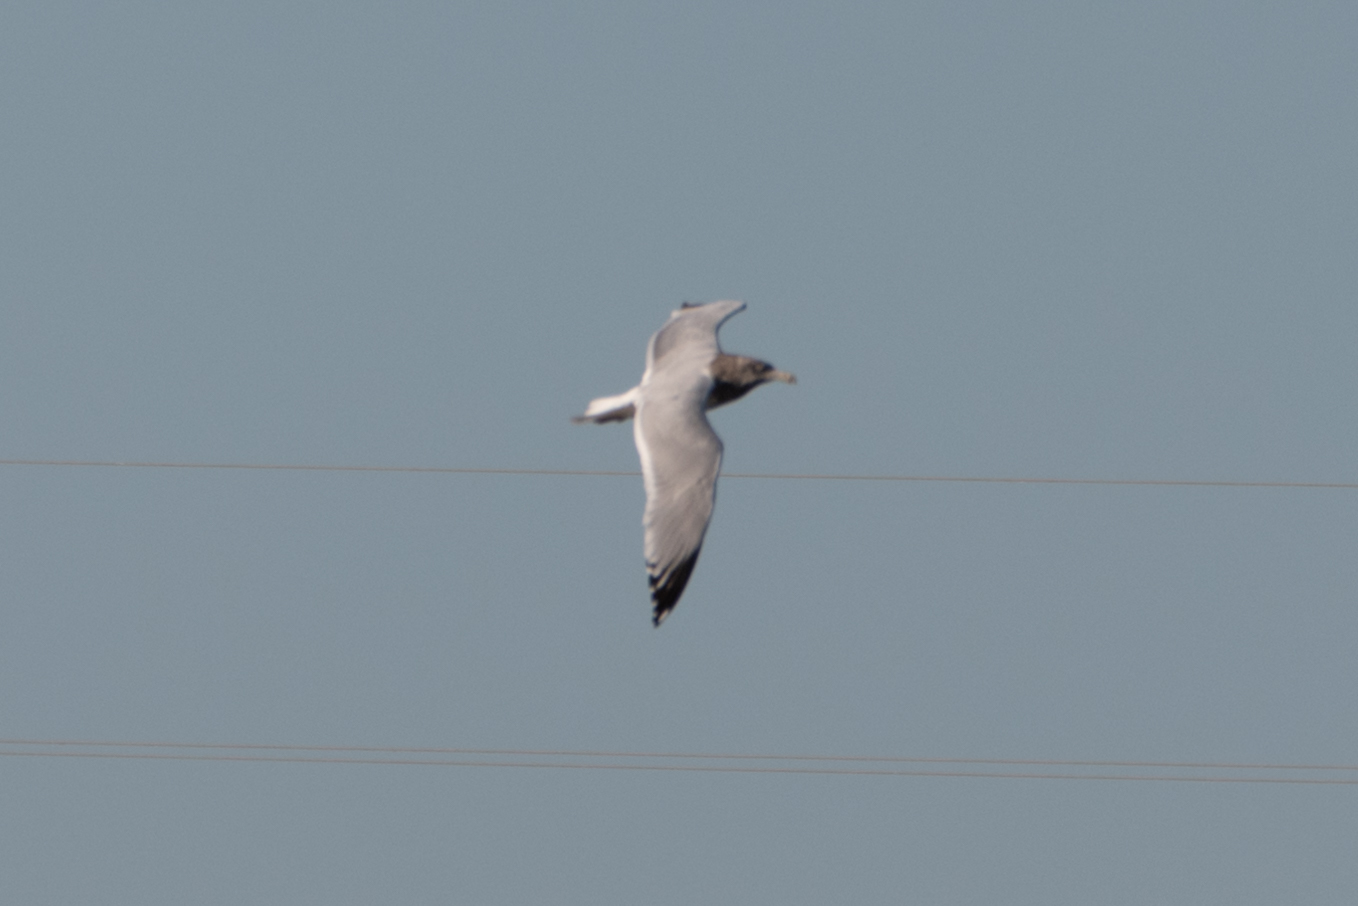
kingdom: Animalia
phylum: Chordata
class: Aves
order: Charadriiformes
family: Laridae
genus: Larus
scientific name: Larus argentatus
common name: Herring gull
